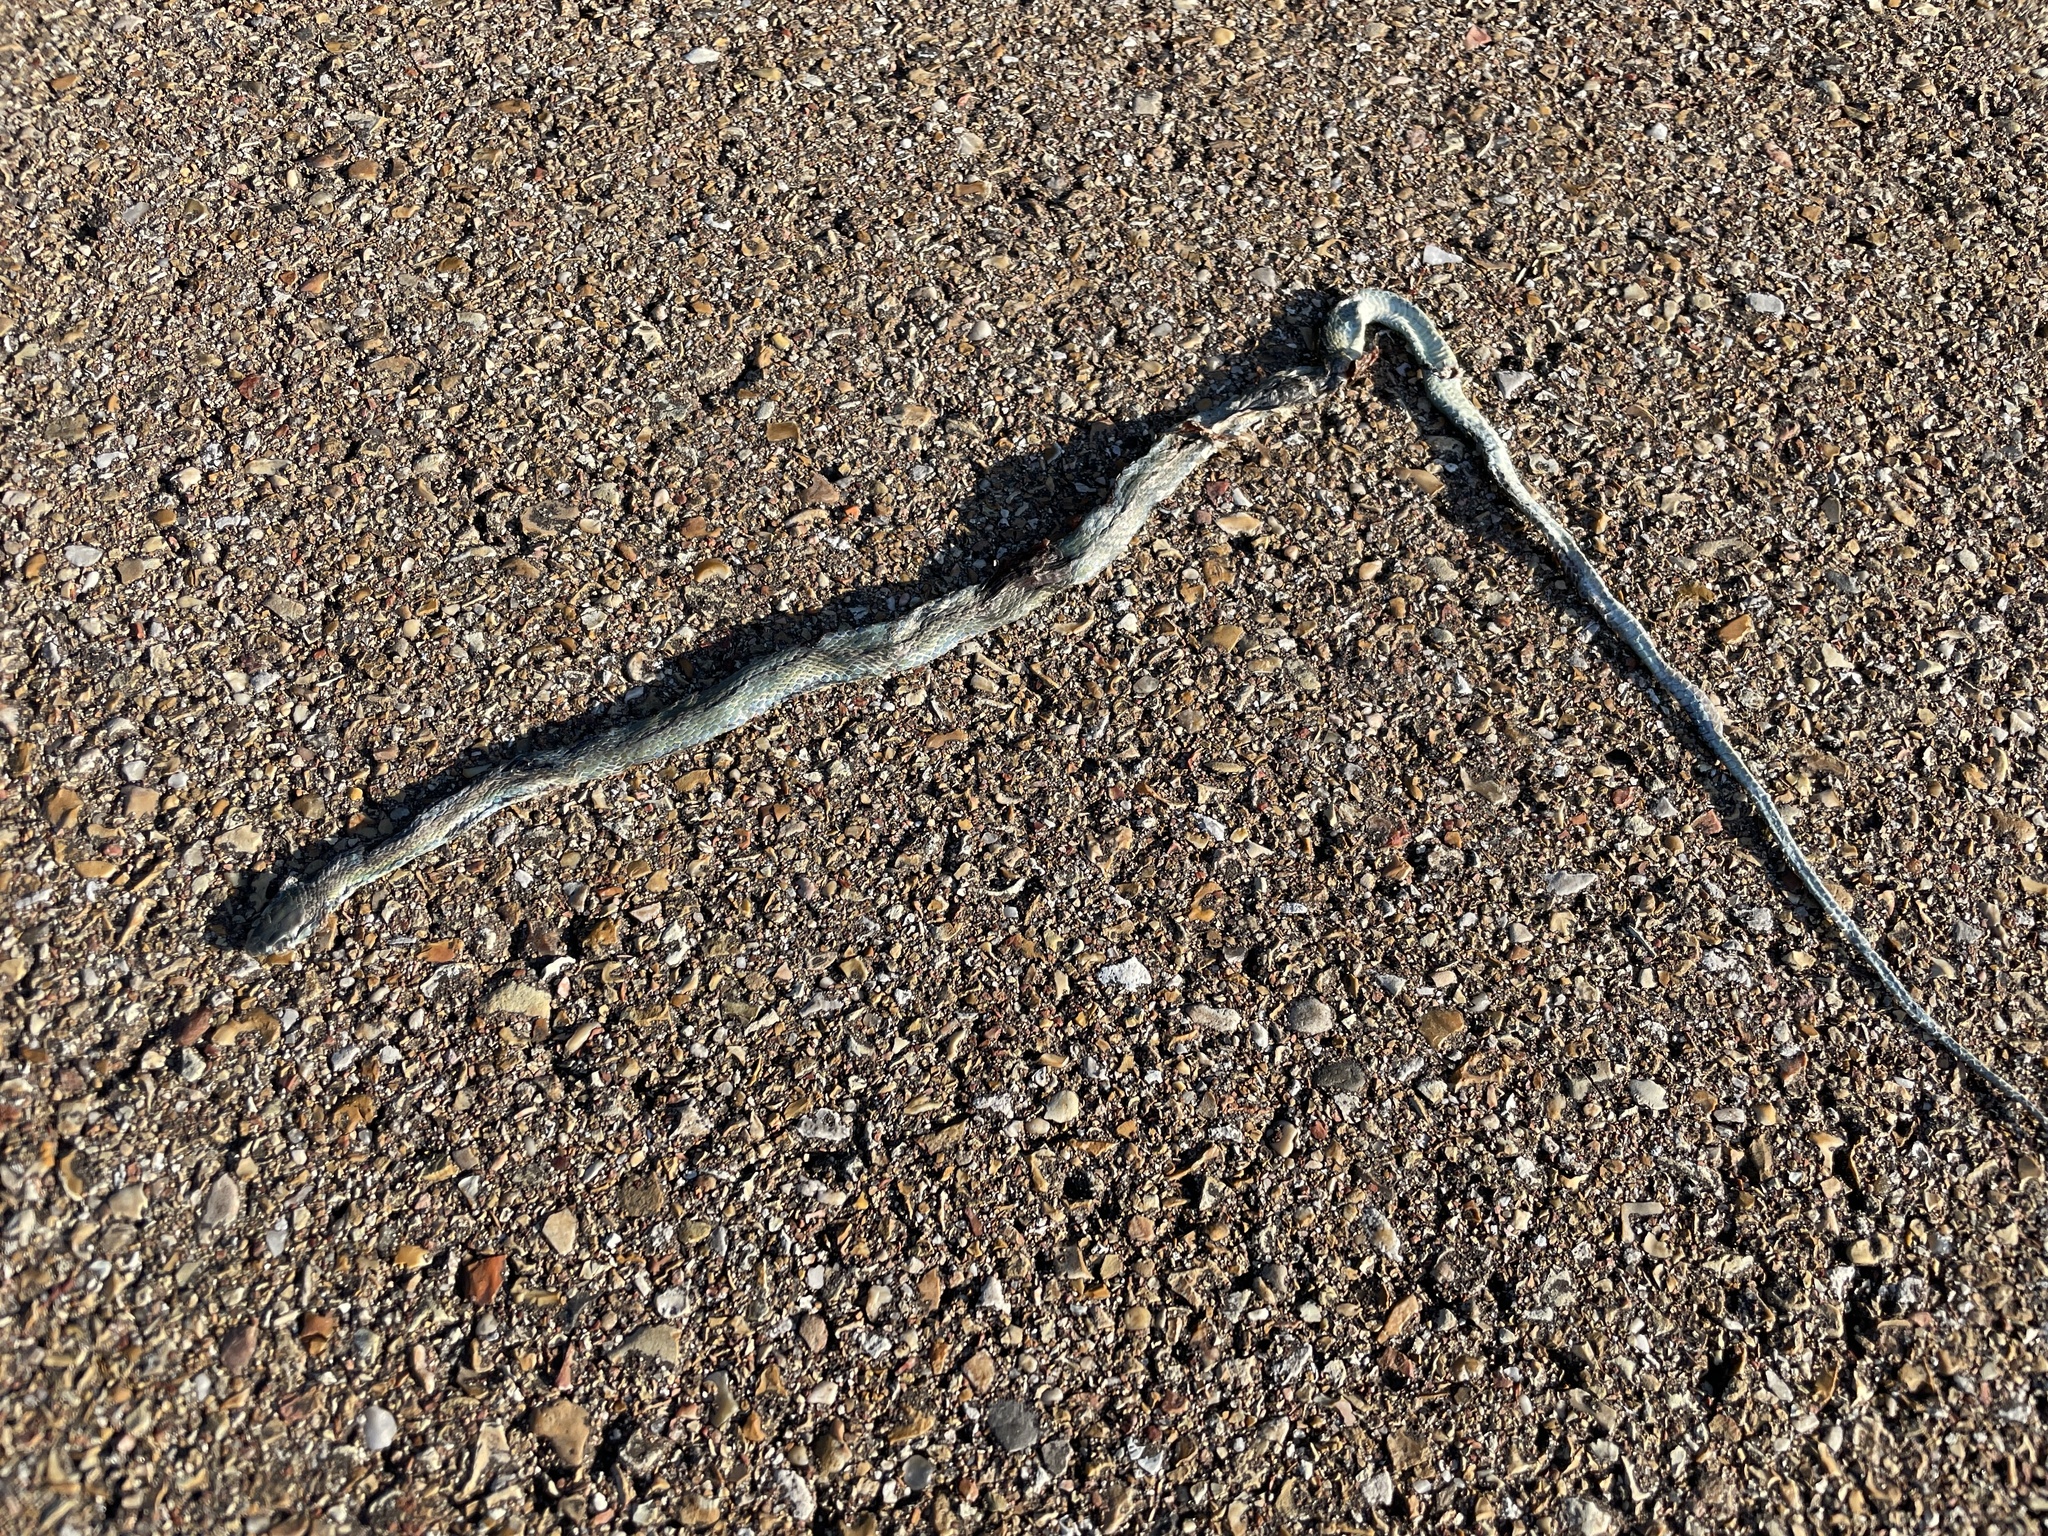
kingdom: Animalia
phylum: Chordata
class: Squamata
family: Colubridae
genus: Opheodrys
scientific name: Opheodrys aestivus
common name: Rough greensnake
